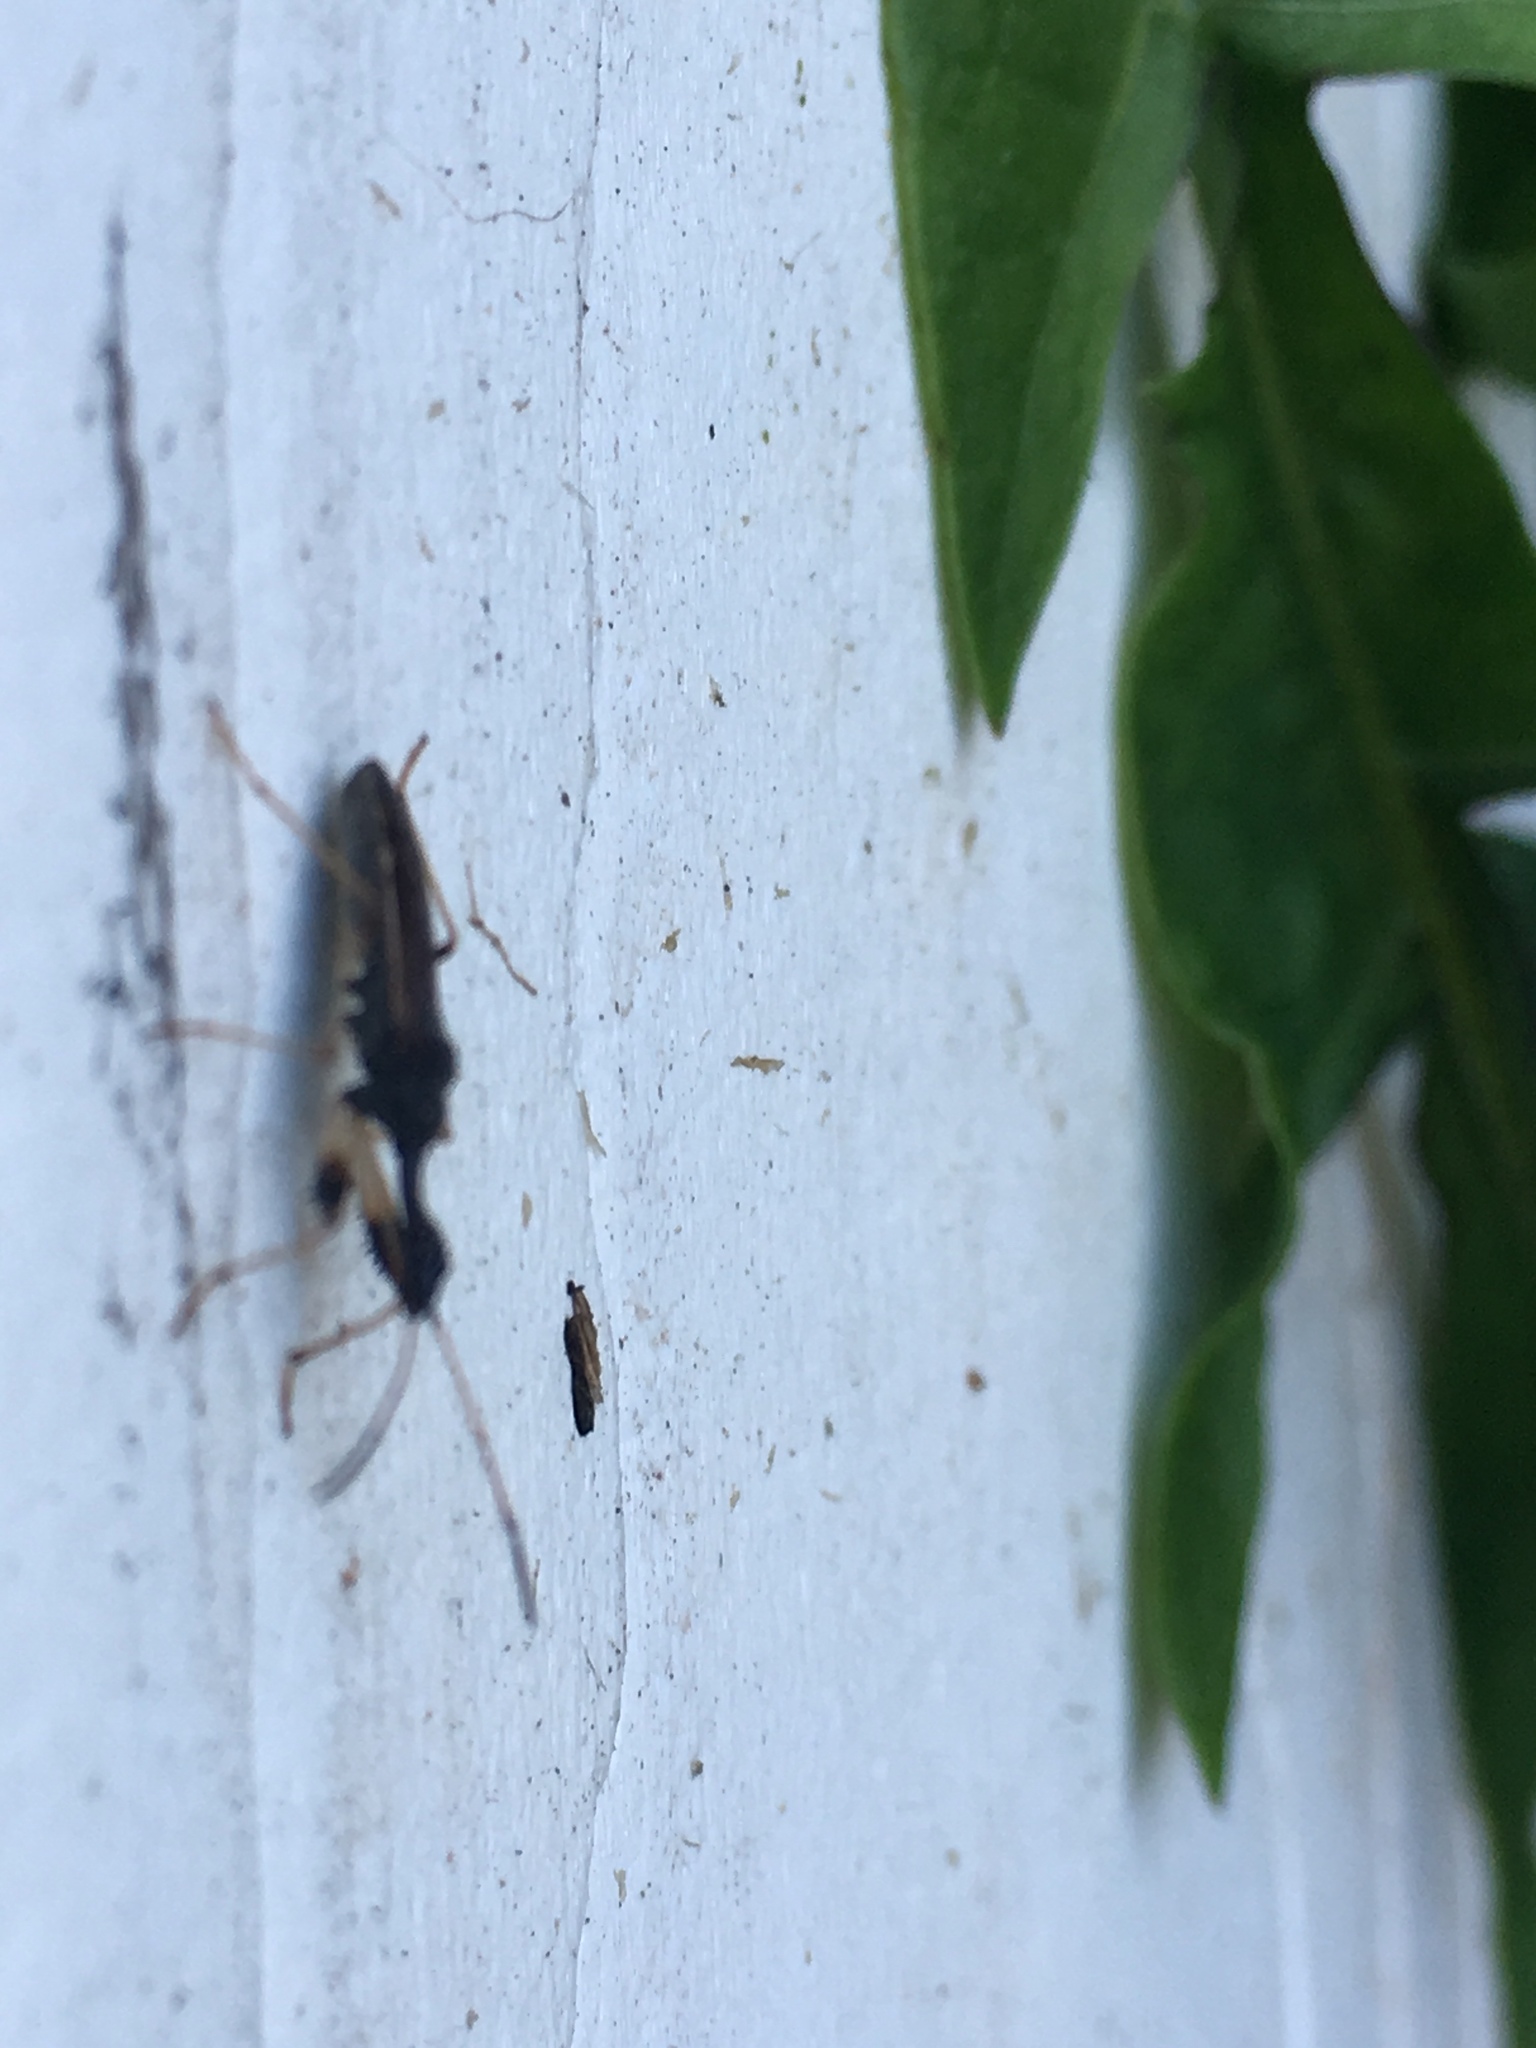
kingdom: Animalia
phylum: Arthropoda
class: Insecta
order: Hemiptera
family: Rhyparochromidae
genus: Myodocha
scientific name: Myodocha serripes
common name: Long-necked seed bug
